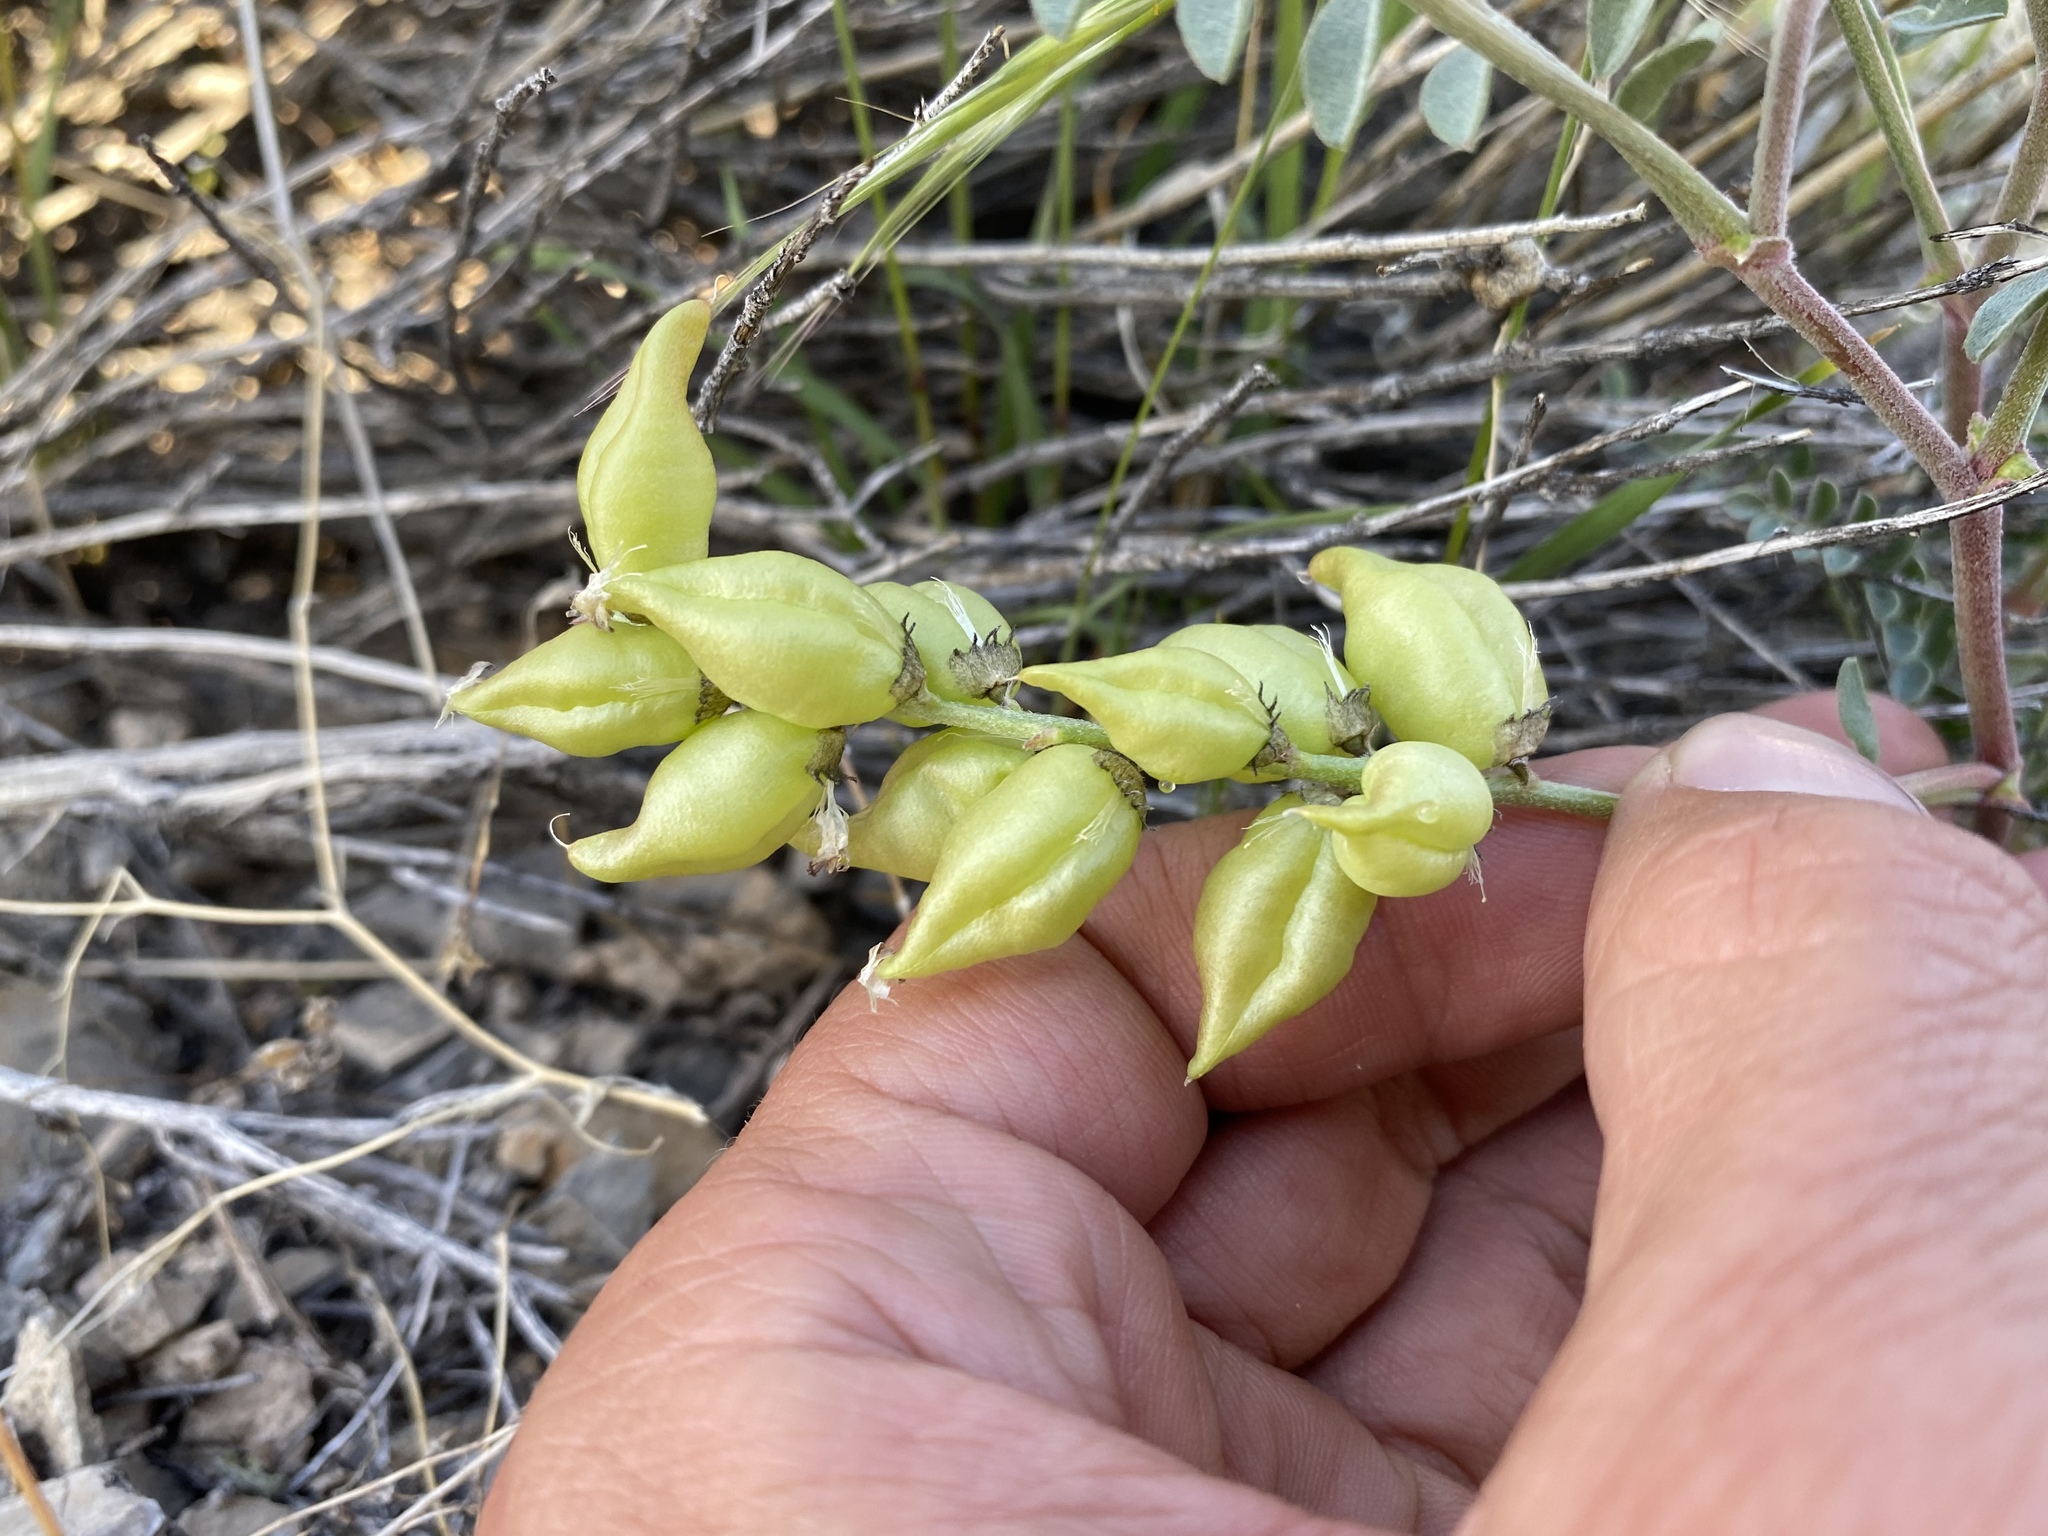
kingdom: Plantae
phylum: Tracheophyta
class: Magnoliopsida
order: Fabales
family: Fabaceae
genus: Astragalus
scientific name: Astragalus lentiginosus
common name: Freckled milkvetch
